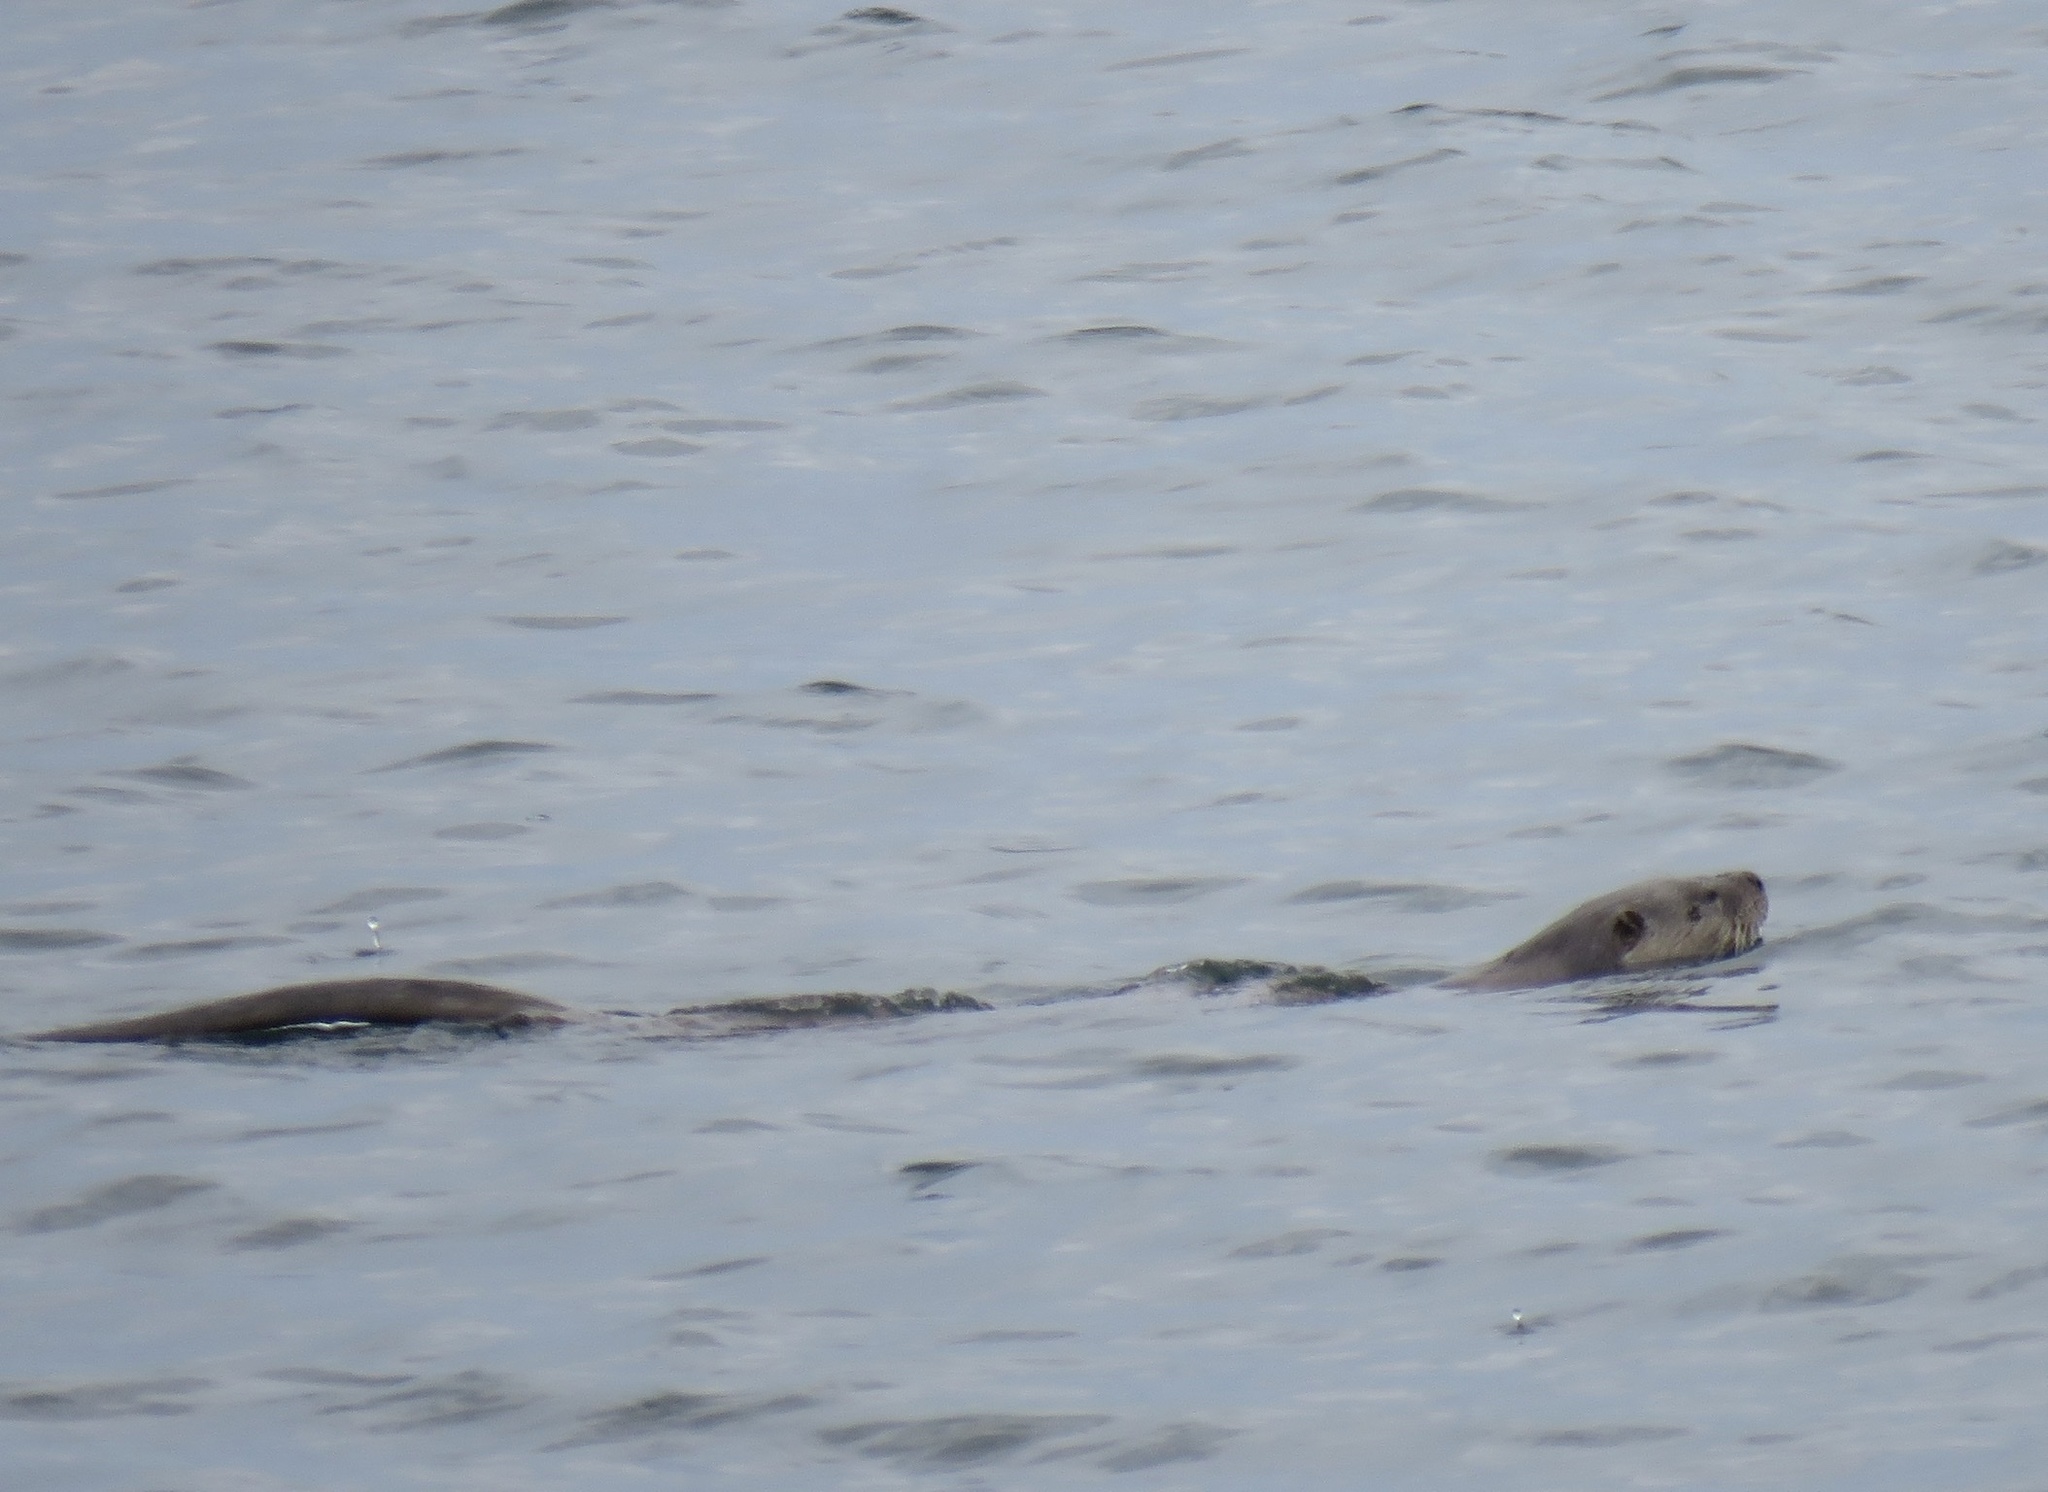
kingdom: Animalia
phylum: Chordata
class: Mammalia
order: Carnivora
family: Mustelidae
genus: Lontra
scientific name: Lontra canadensis
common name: North american river otter
